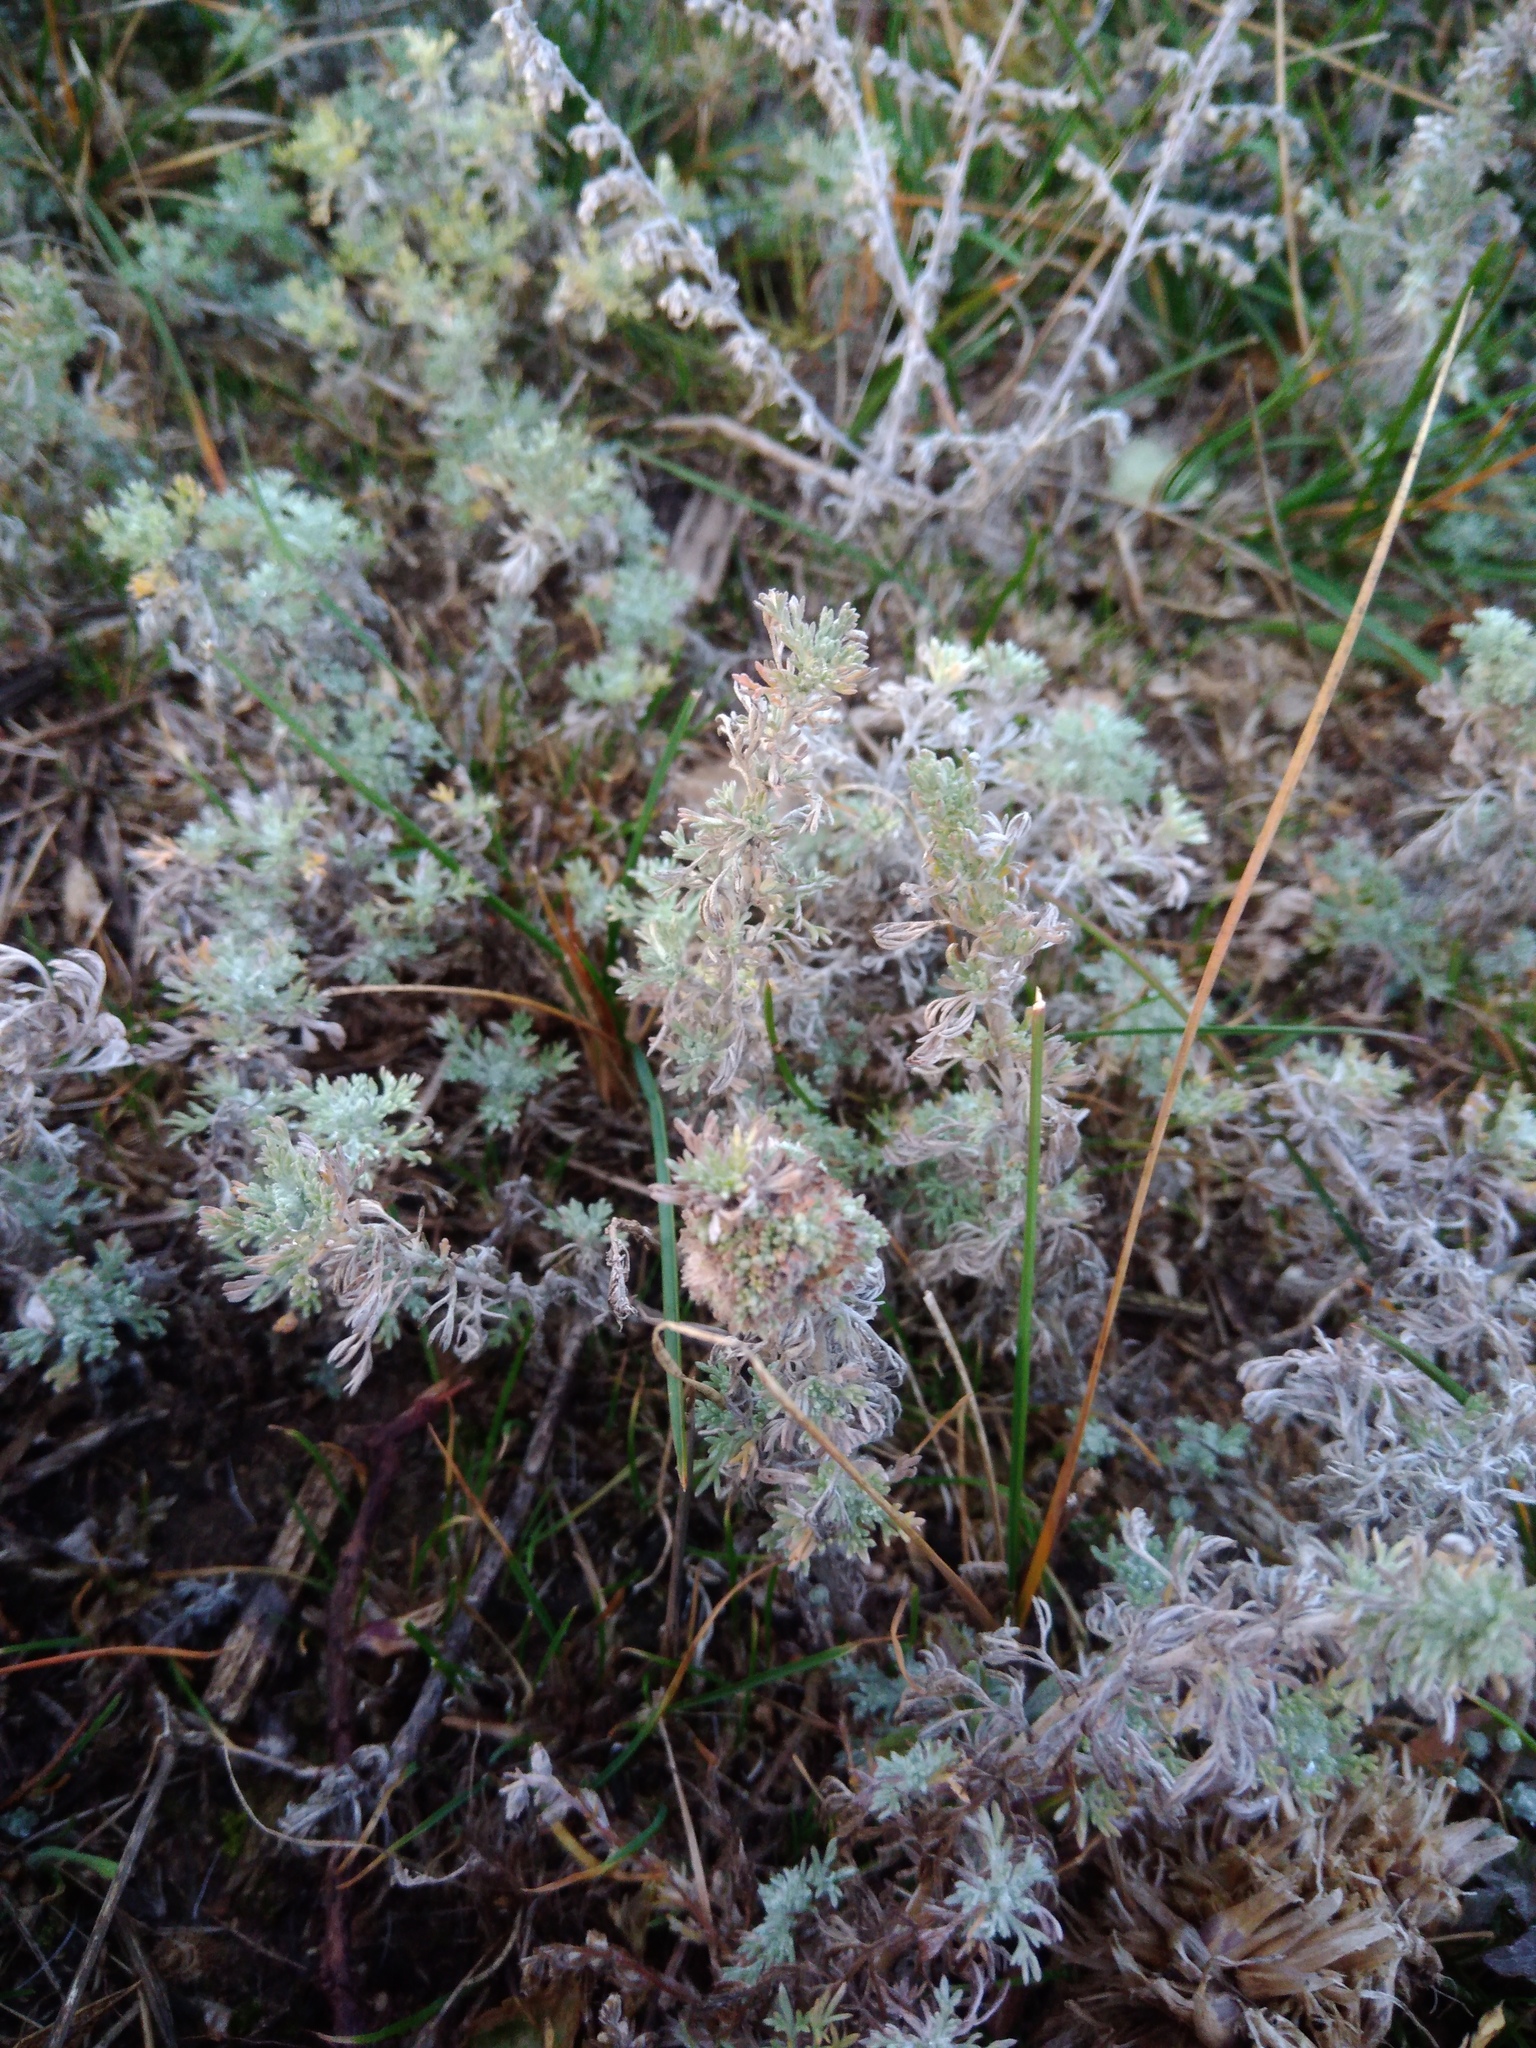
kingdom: Plantae
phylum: Tracheophyta
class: Magnoliopsida
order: Asterales
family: Asteraceae
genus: Artemisia
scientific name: Artemisia austriaca
